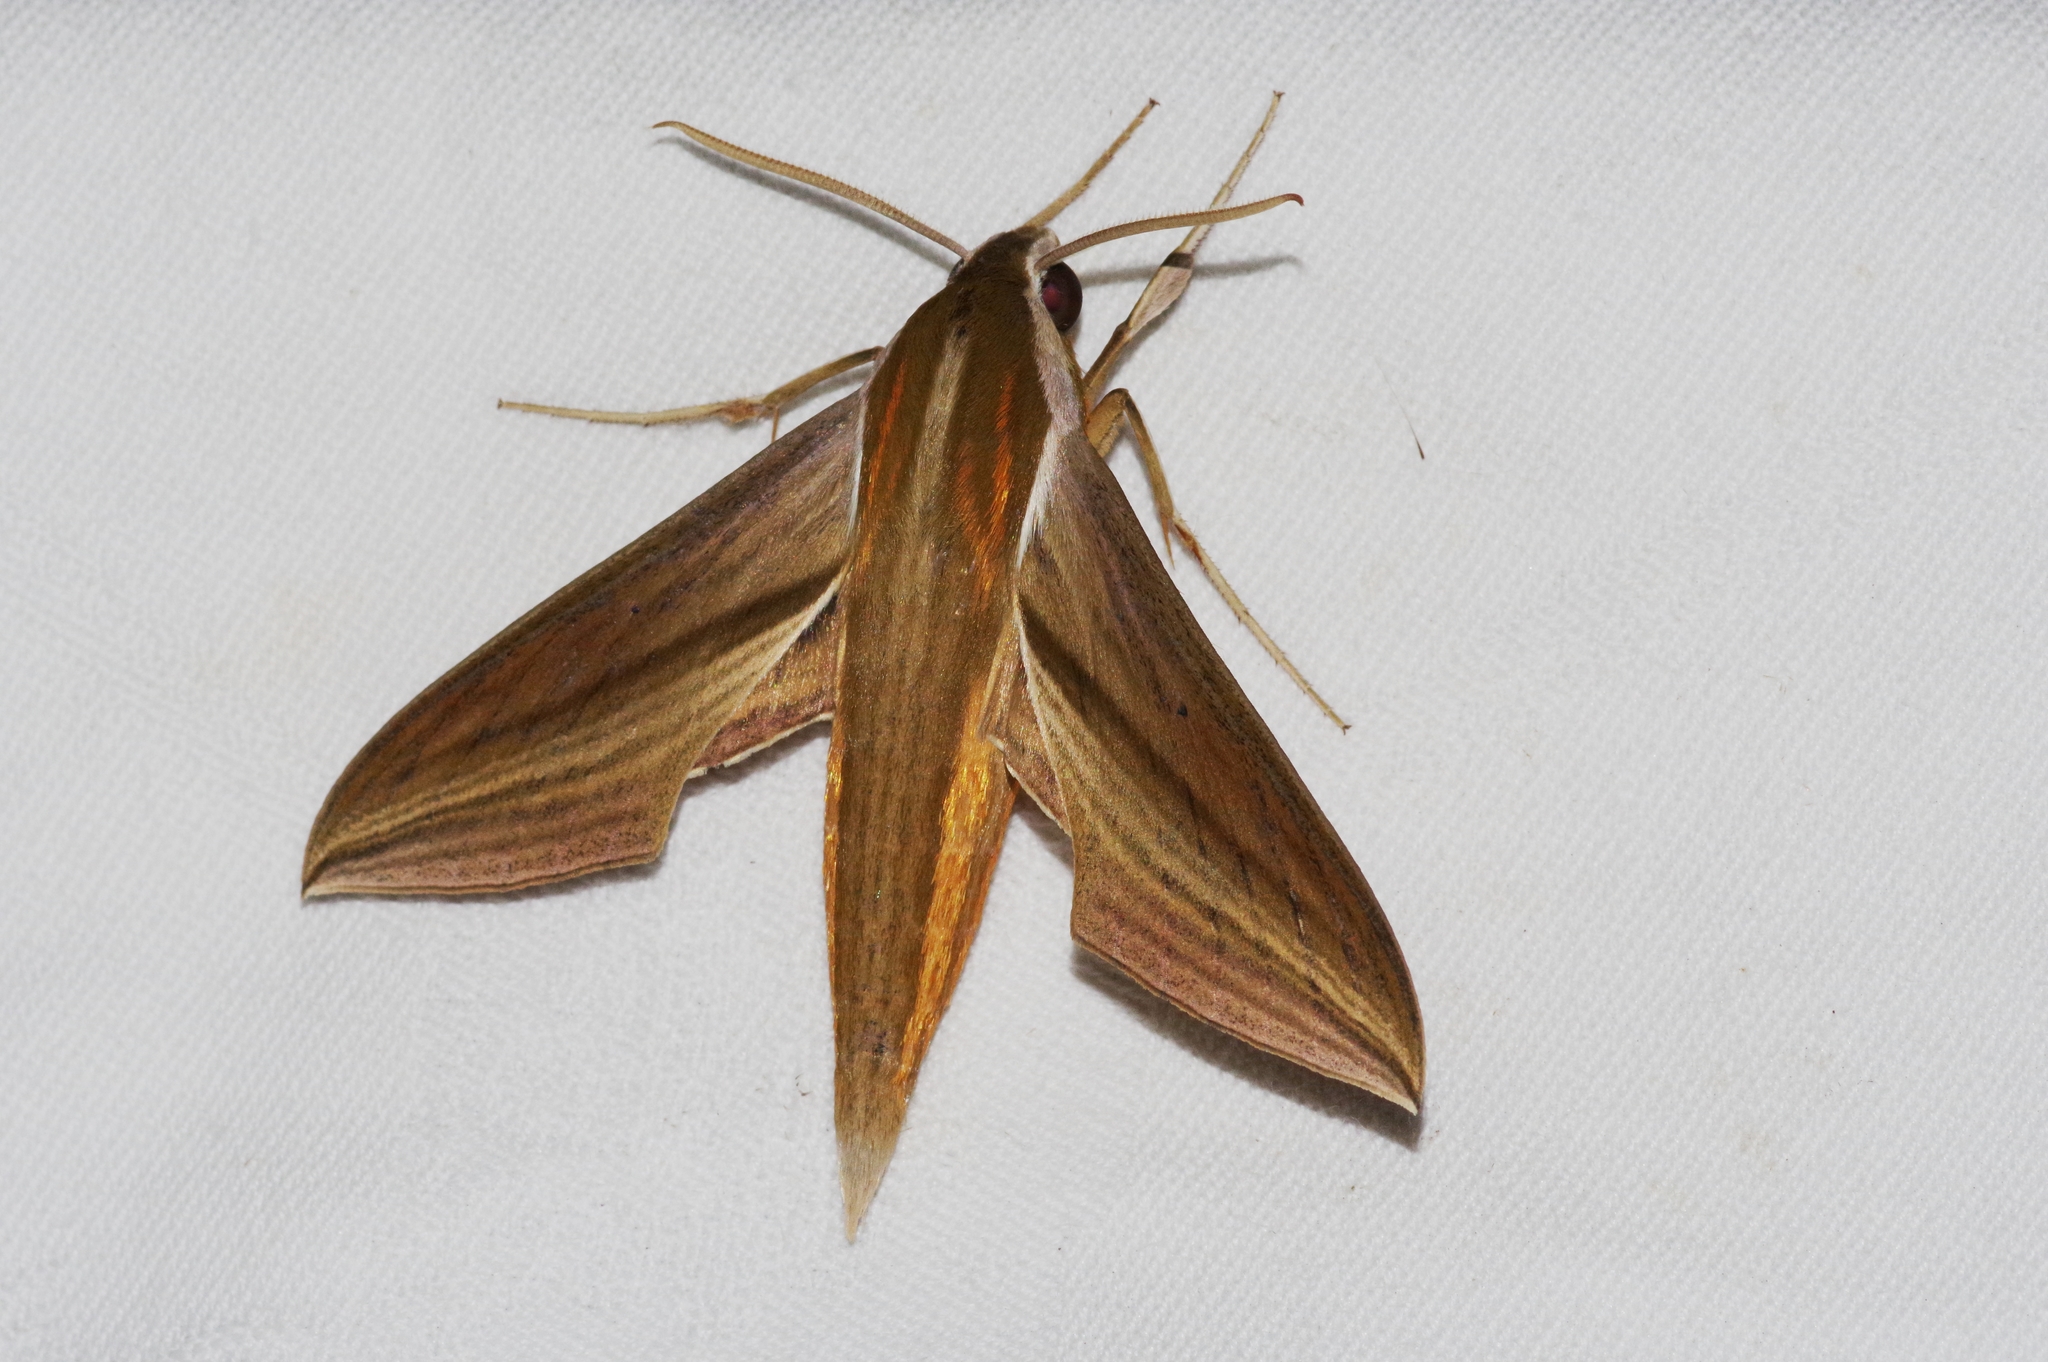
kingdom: Animalia
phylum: Arthropoda
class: Insecta
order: Lepidoptera
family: Sphingidae
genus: Theretra
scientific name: Theretra japonica
